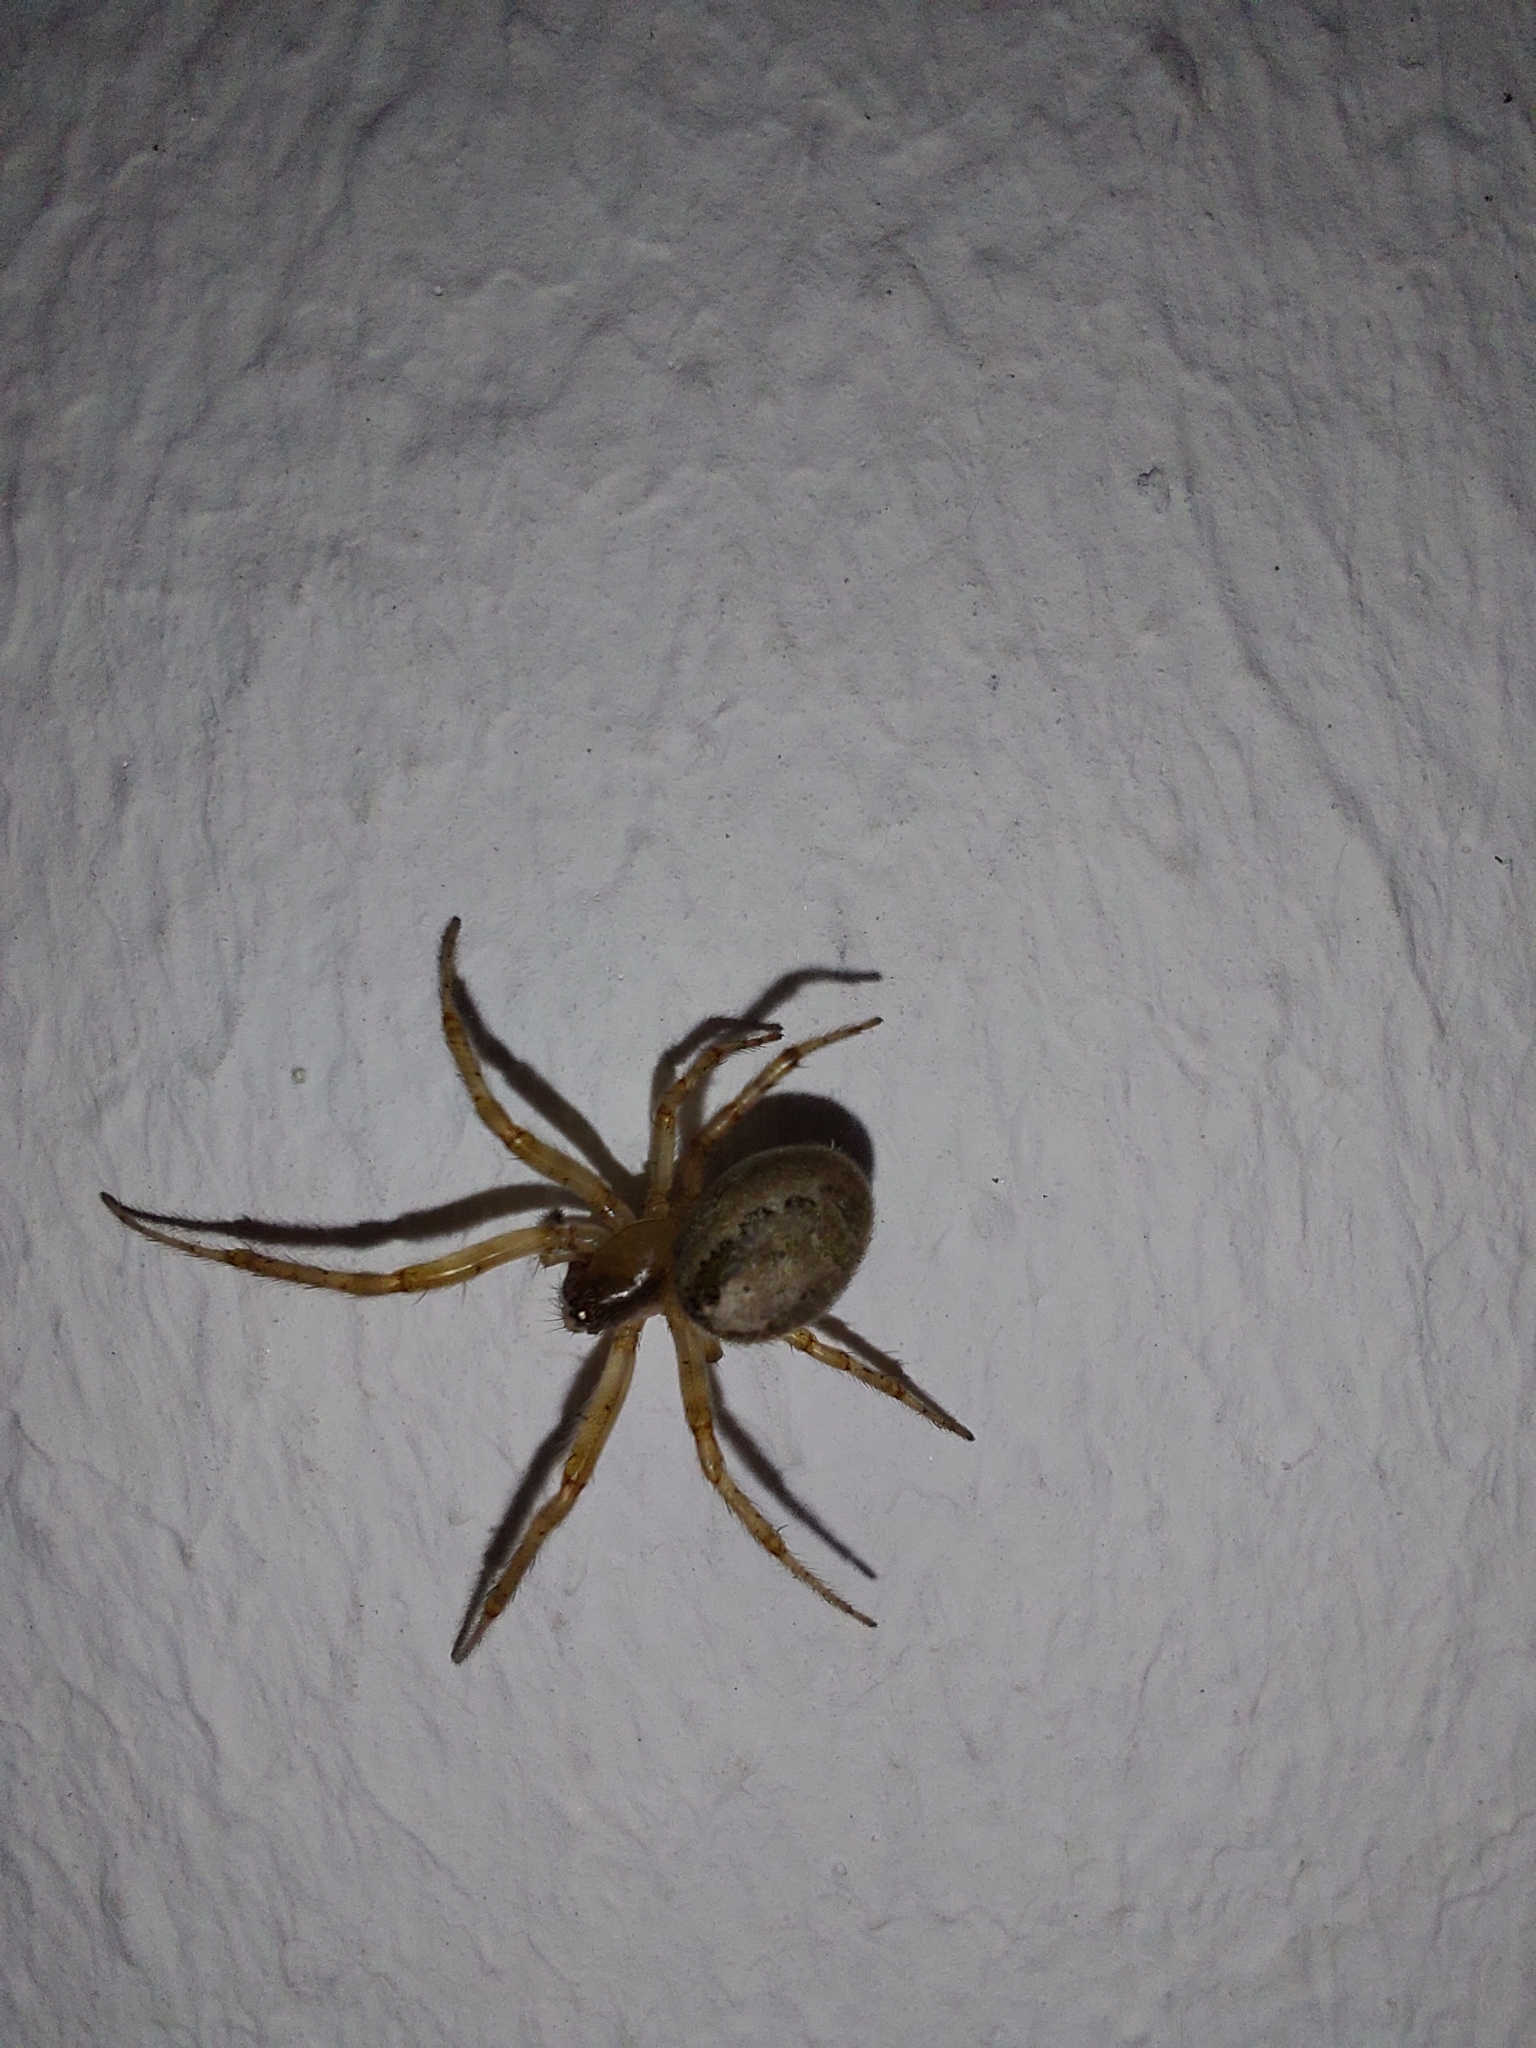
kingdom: Animalia
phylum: Arthropoda
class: Arachnida
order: Araneae
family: Araneidae
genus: Zygiella
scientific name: Zygiella x-notata
